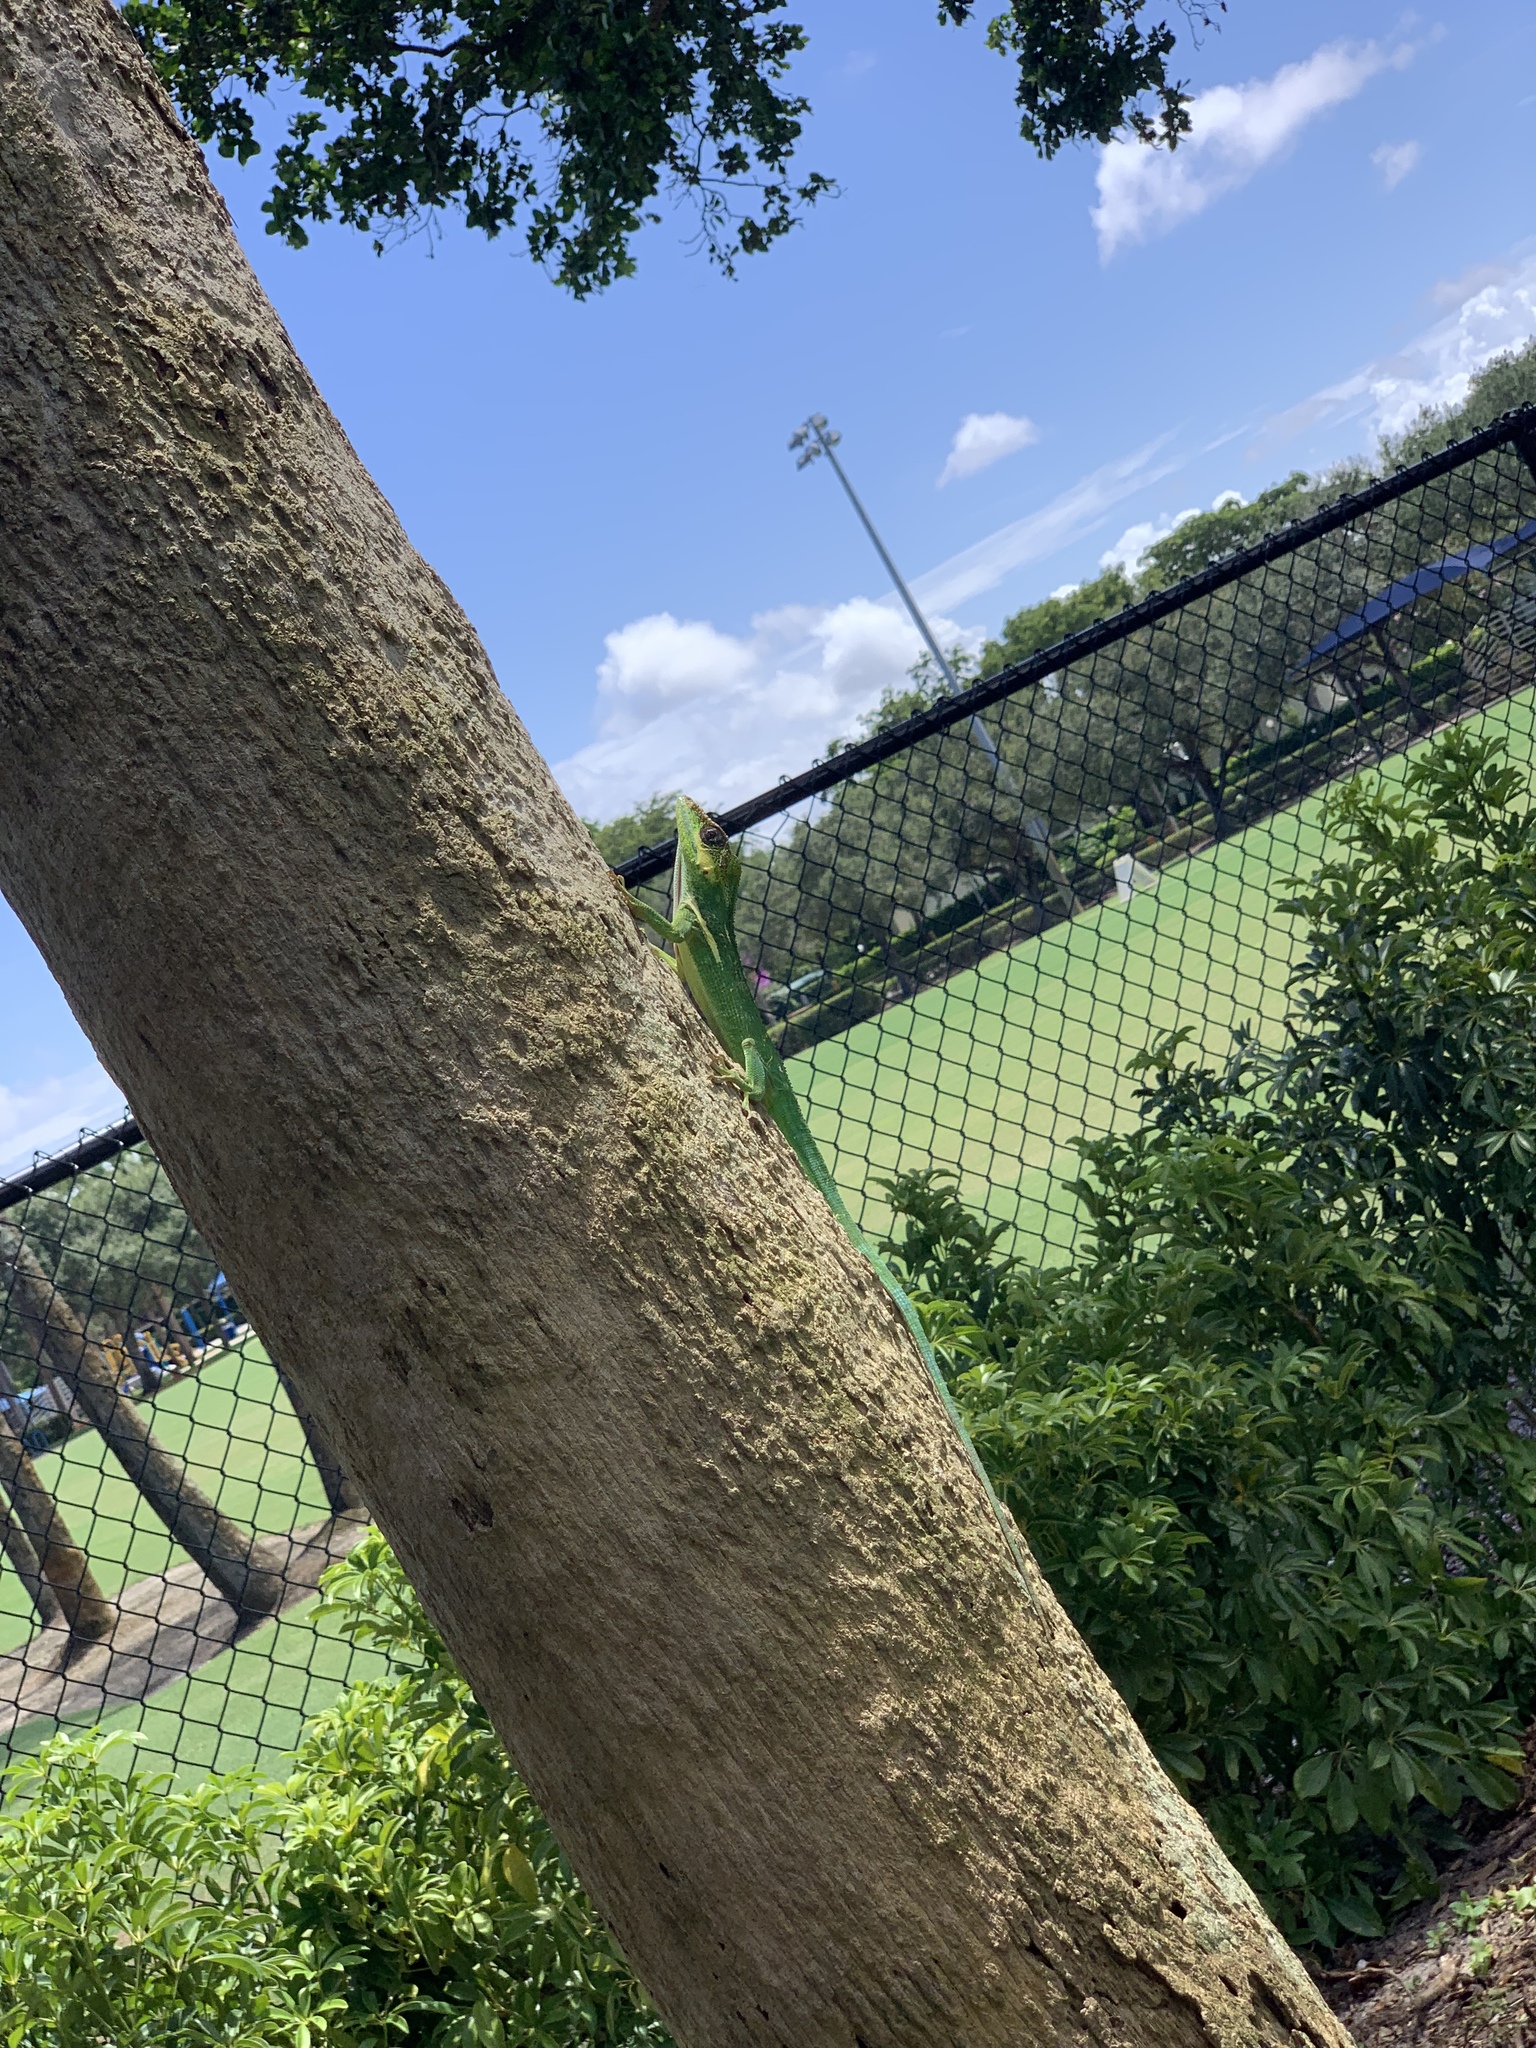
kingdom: Animalia
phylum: Chordata
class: Squamata
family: Dactyloidae
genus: Anolis
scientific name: Anolis equestris
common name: Knight anole
